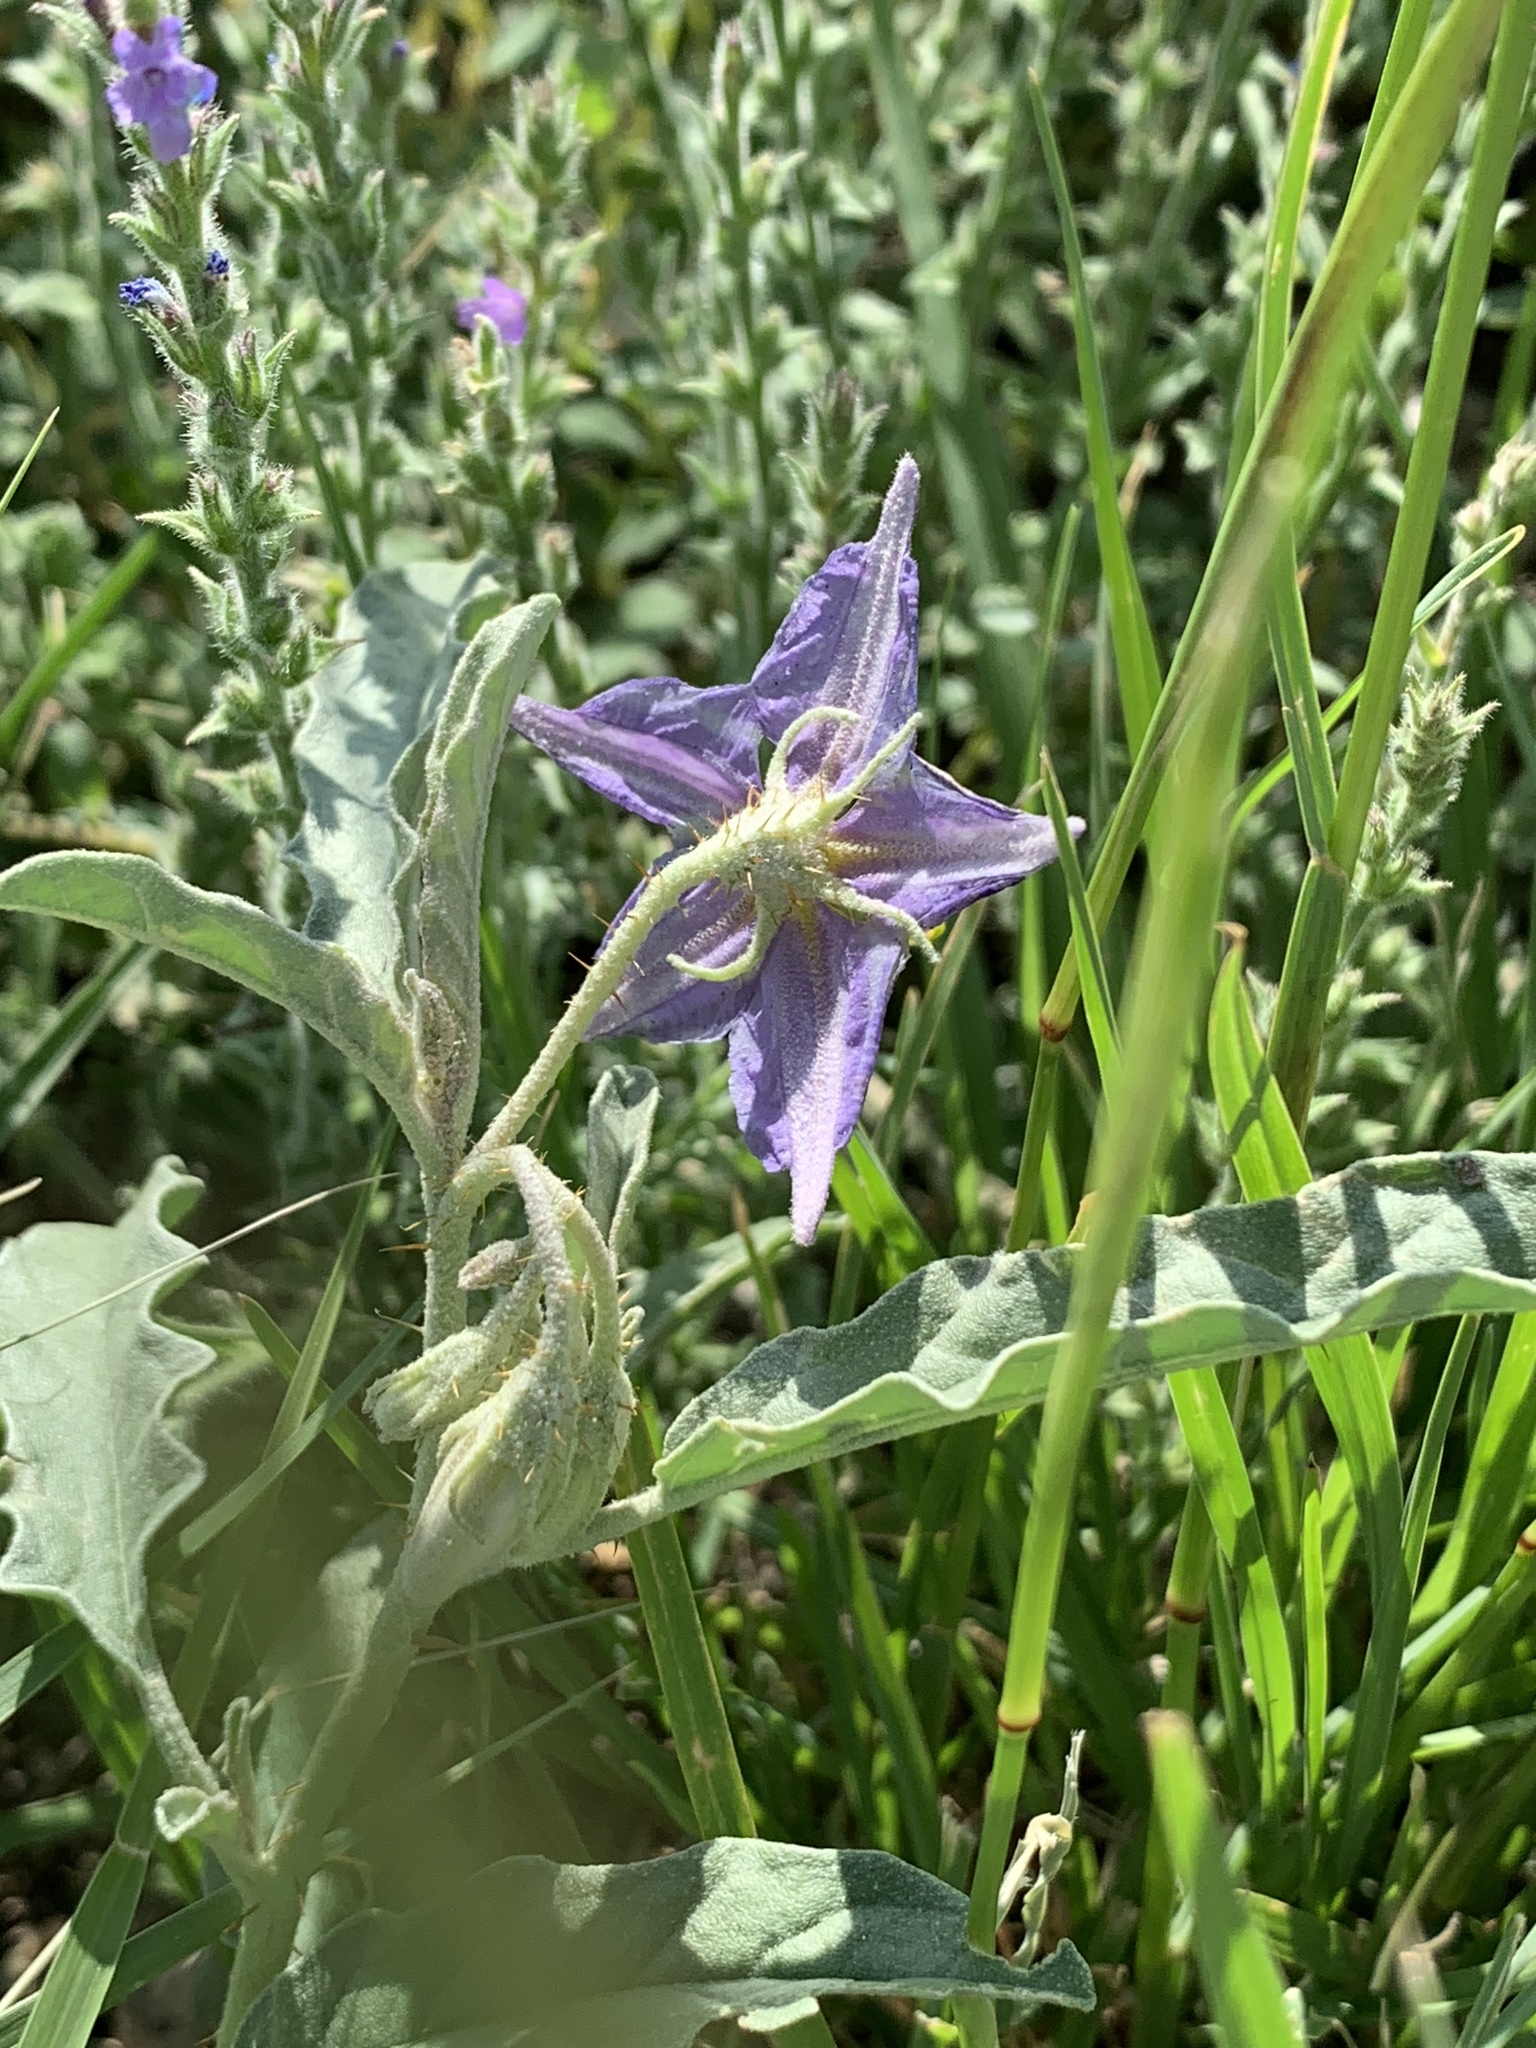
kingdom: Plantae
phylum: Tracheophyta
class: Magnoliopsida
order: Solanales
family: Solanaceae
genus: Solanum
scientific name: Solanum elaeagnifolium
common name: Silverleaf nightshade
